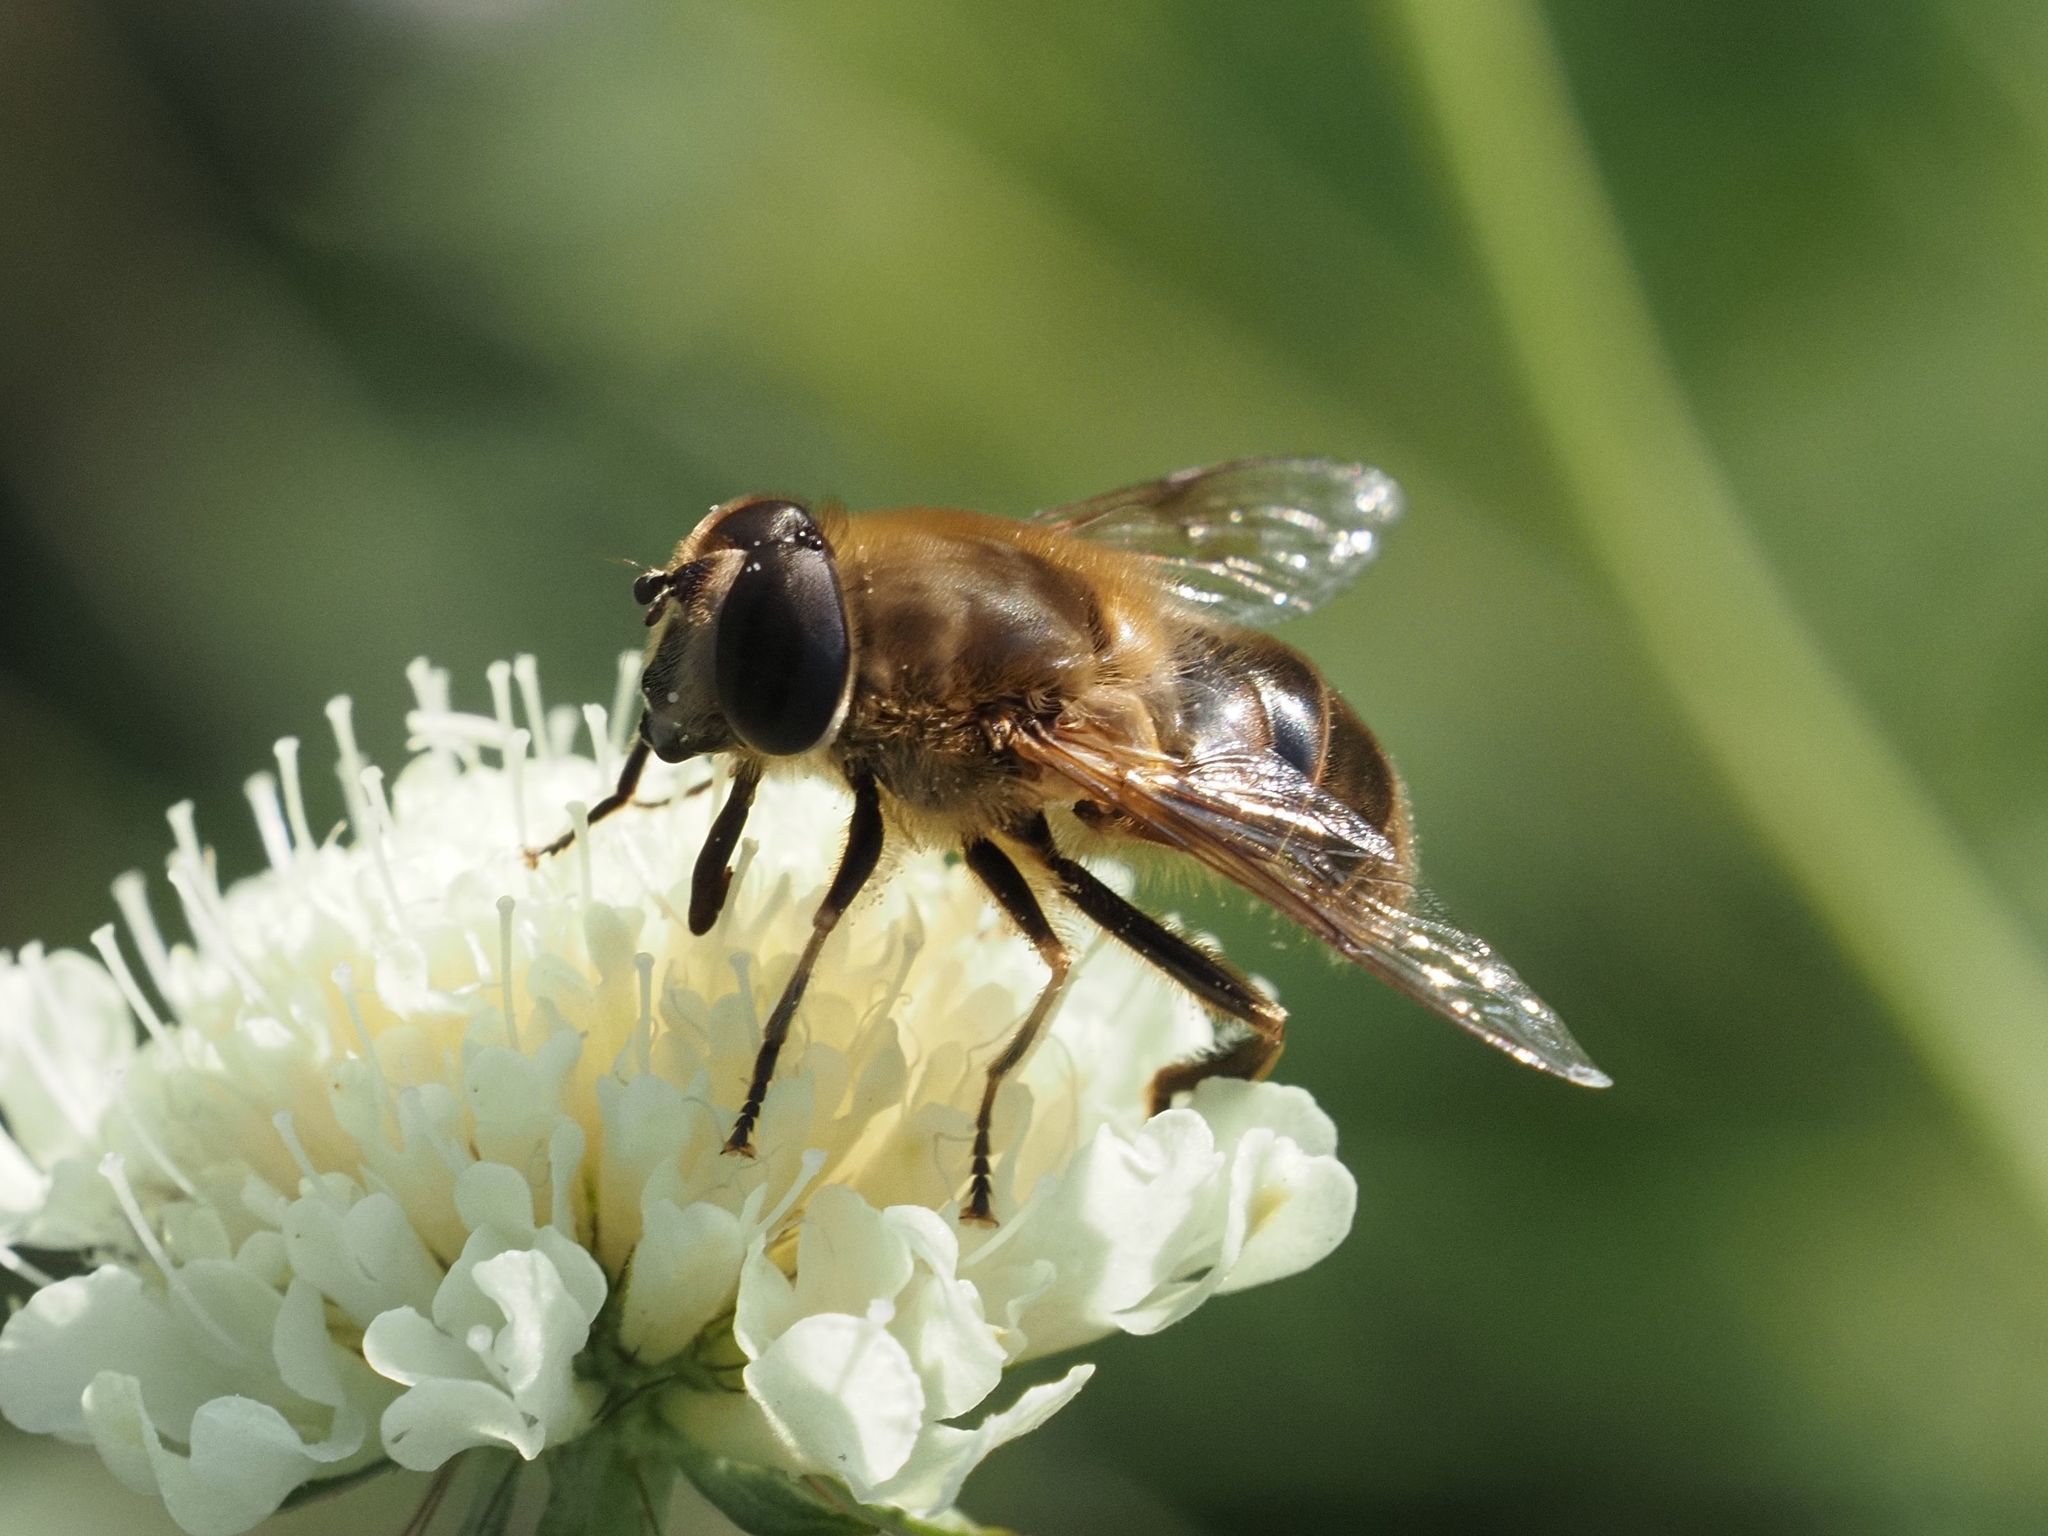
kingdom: Animalia
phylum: Arthropoda
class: Insecta
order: Diptera
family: Syrphidae
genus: Eristalis
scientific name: Eristalis tenax
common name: Drone fly
